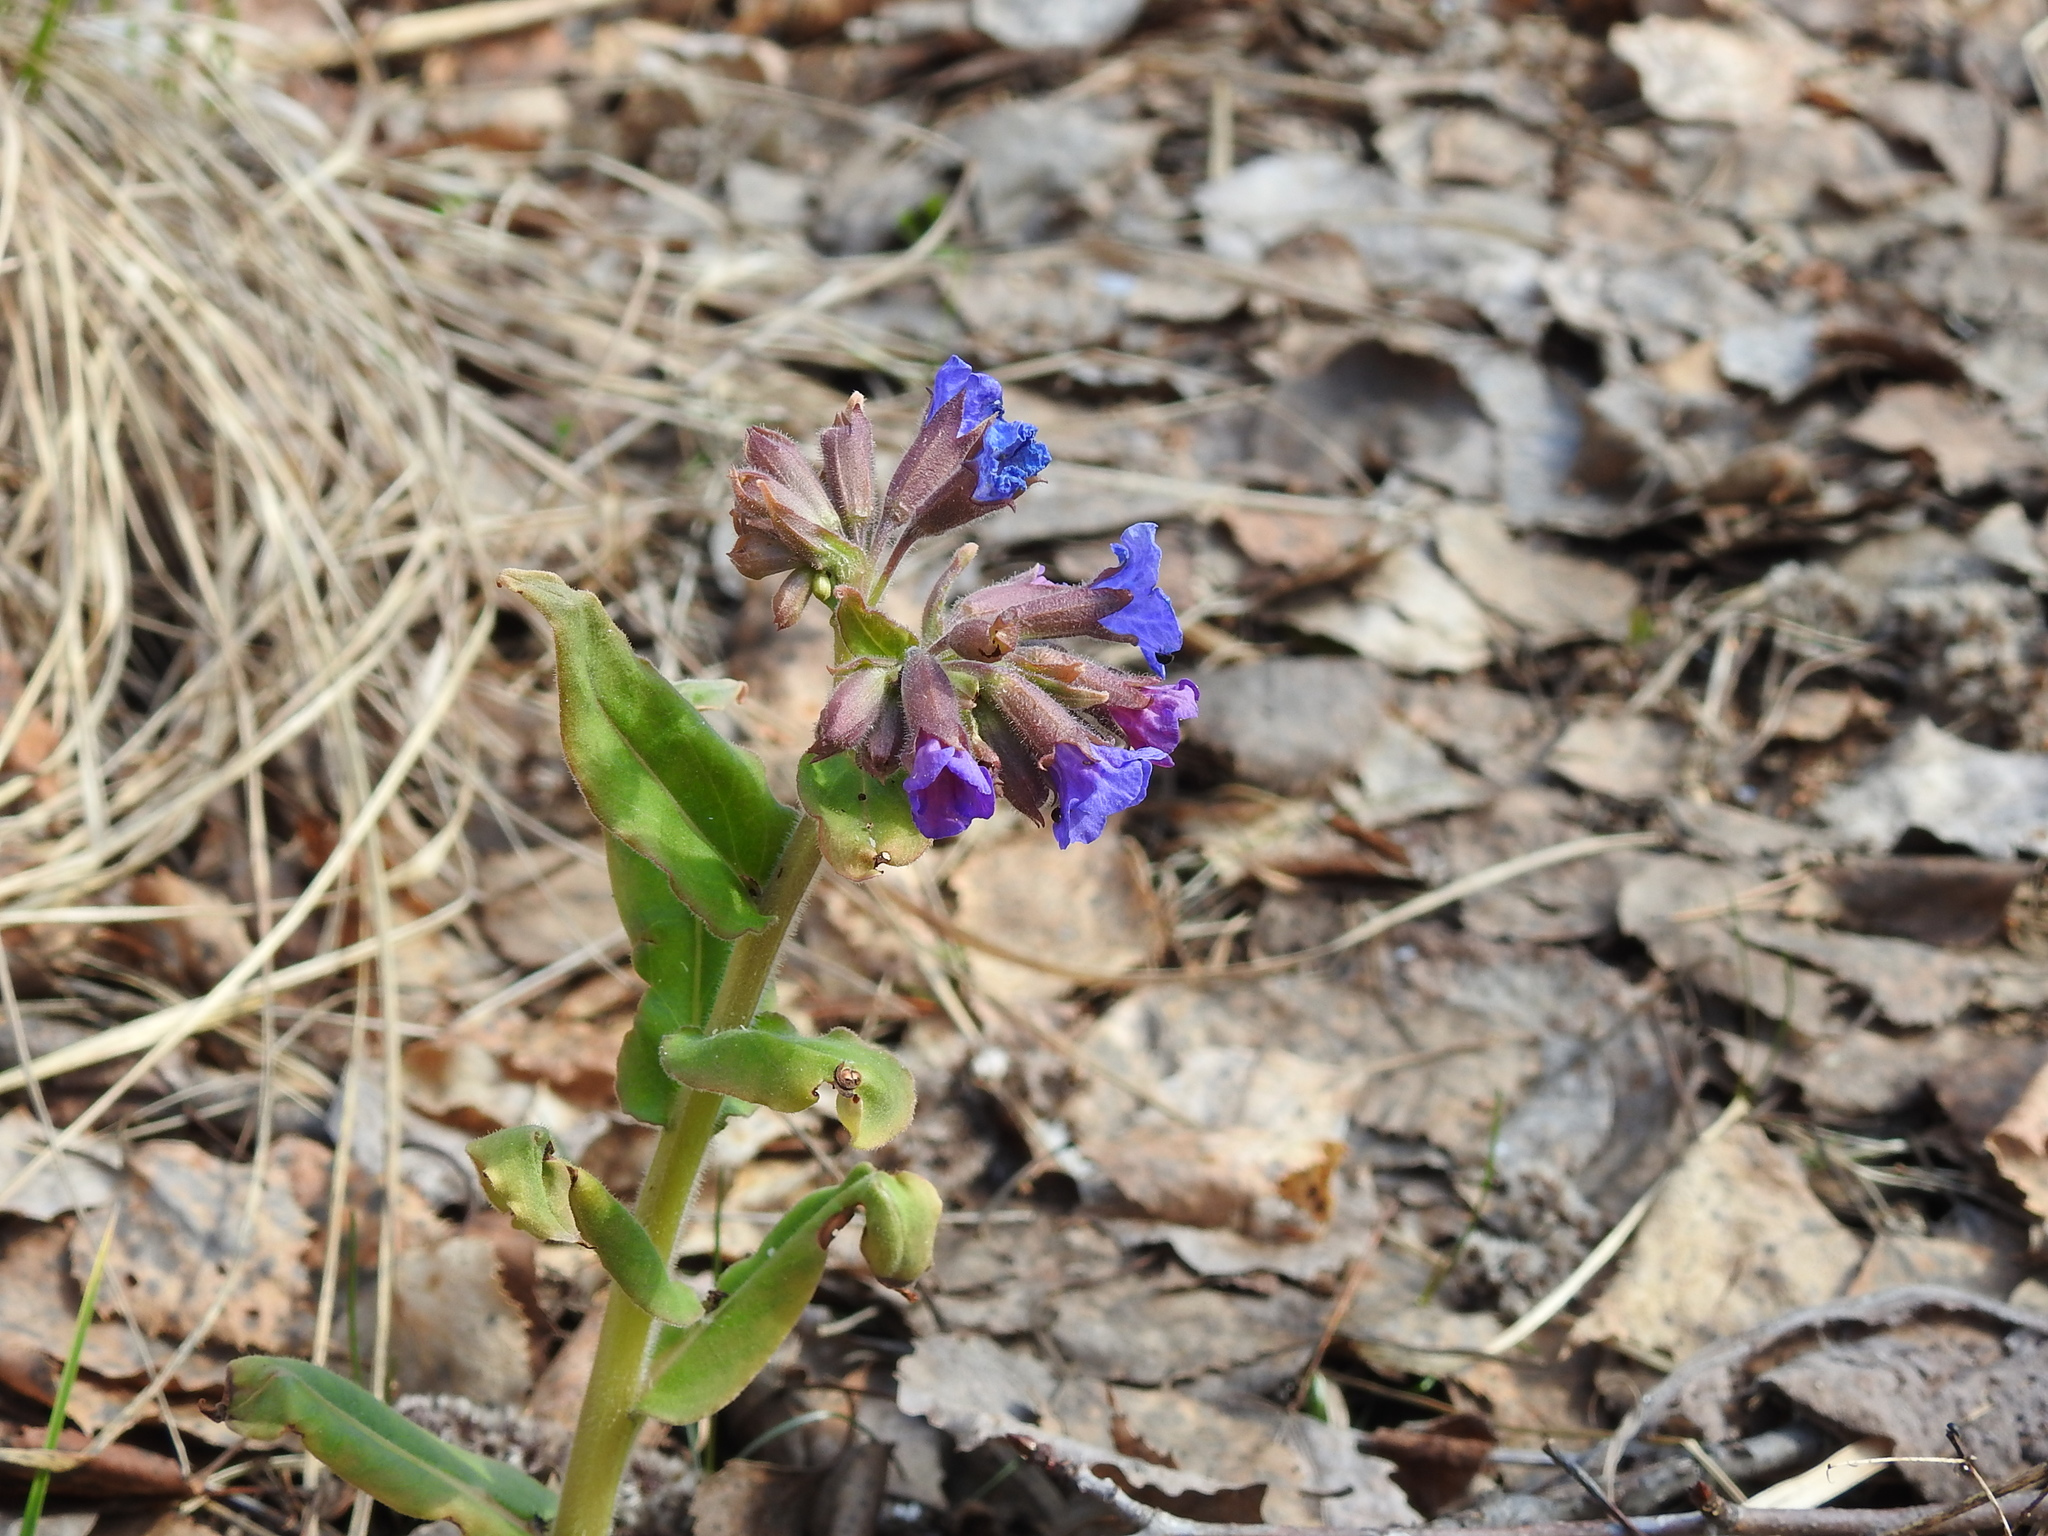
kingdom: Plantae
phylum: Tracheophyta
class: Magnoliopsida
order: Boraginales
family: Boraginaceae
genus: Pulmonaria
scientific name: Pulmonaria mollis
